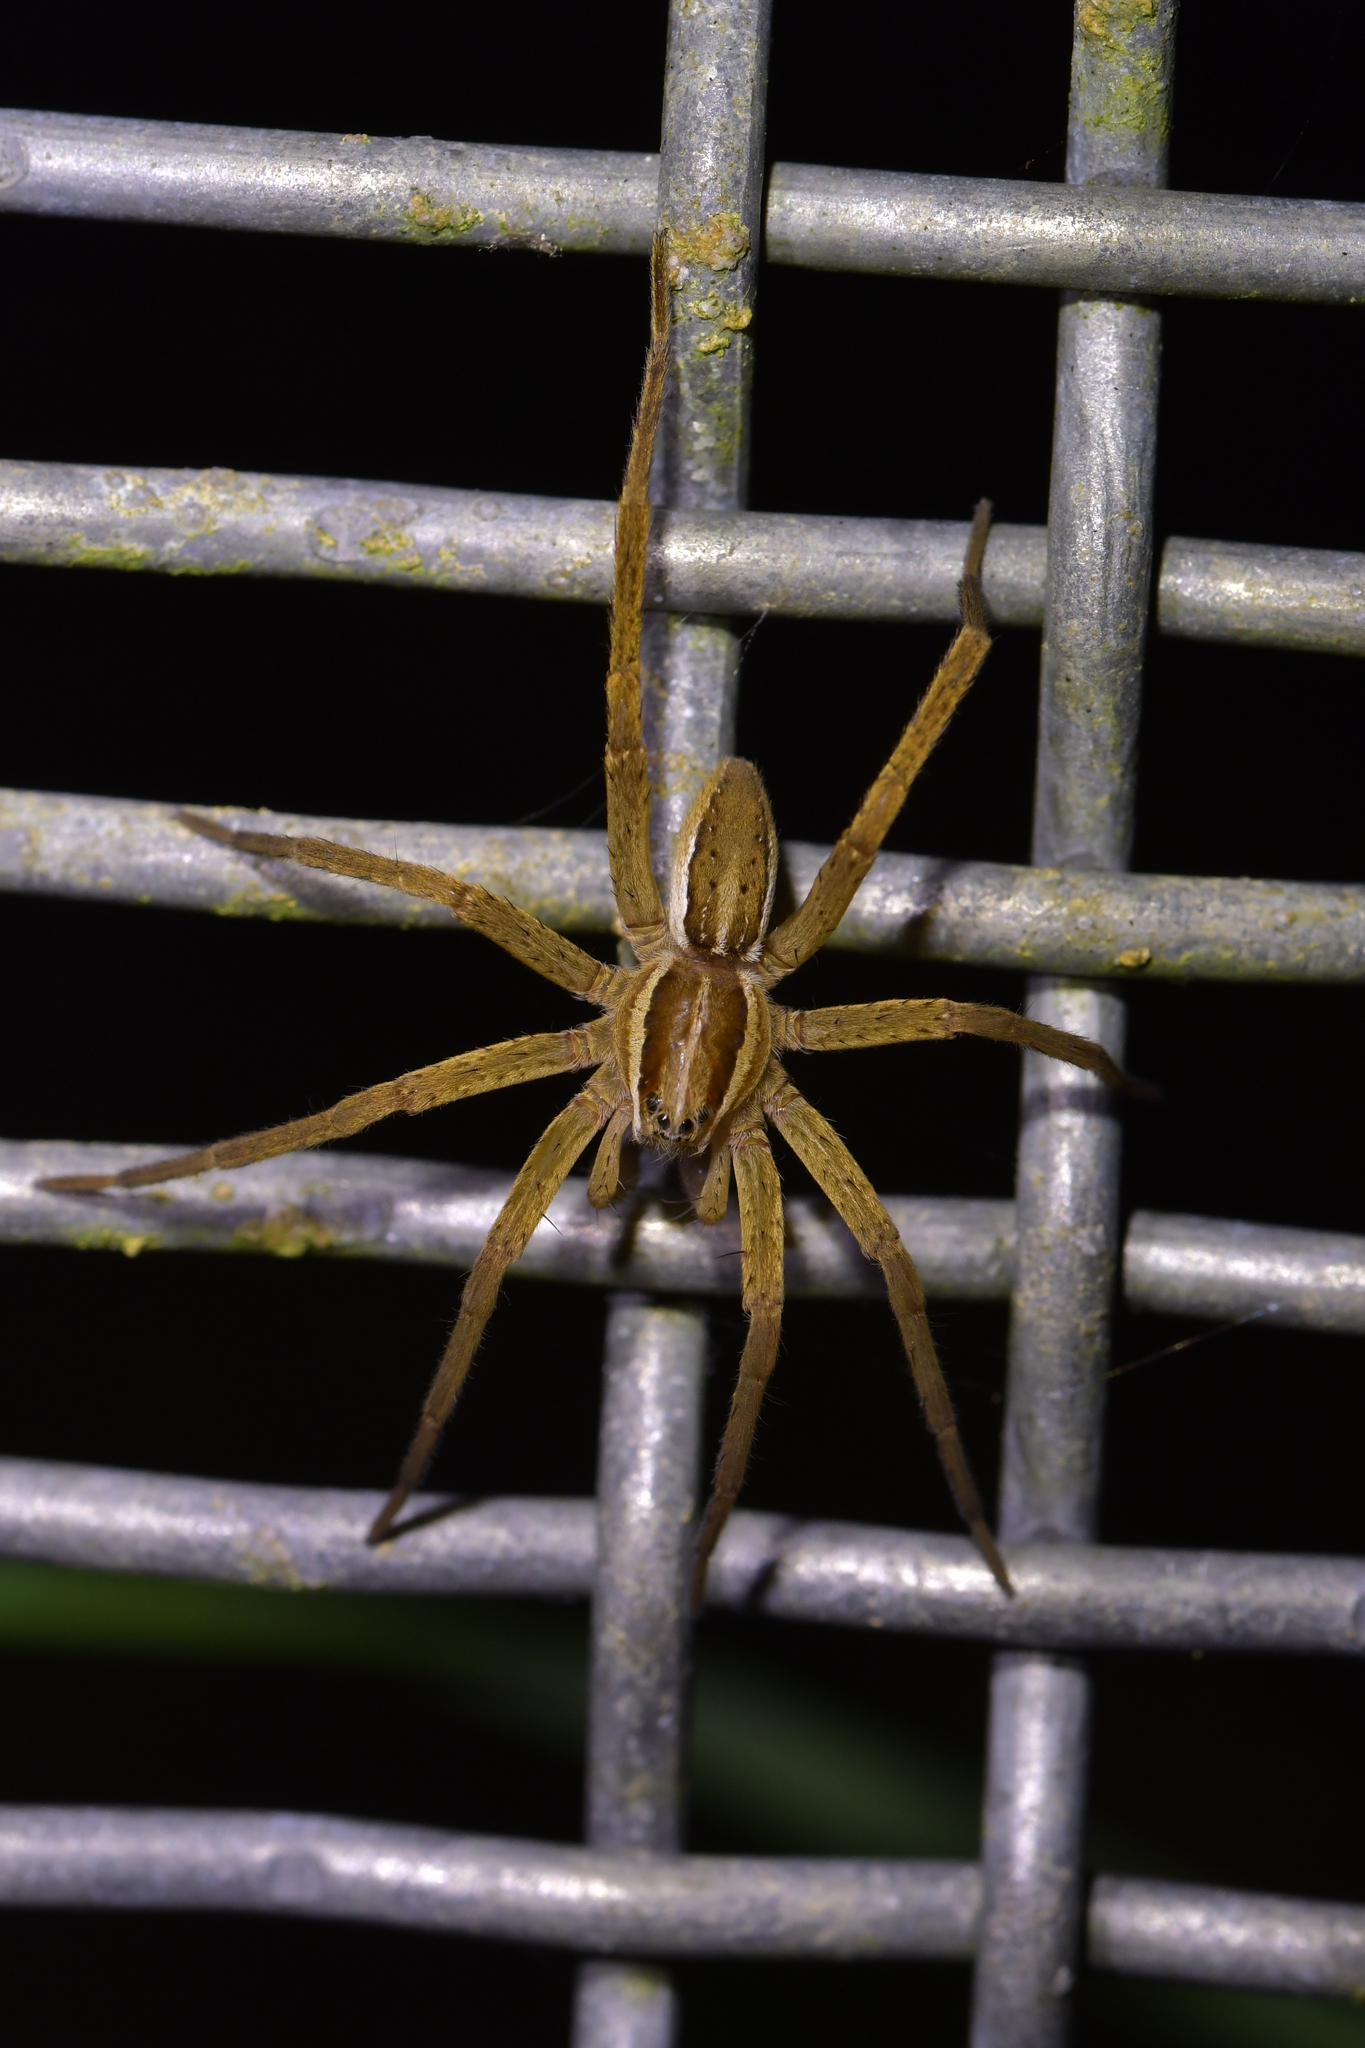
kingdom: Animalia
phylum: Arthropoda
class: Arachnida
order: Araneae
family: Pisauridae
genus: Dolomedes
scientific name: Dolomedes minor
